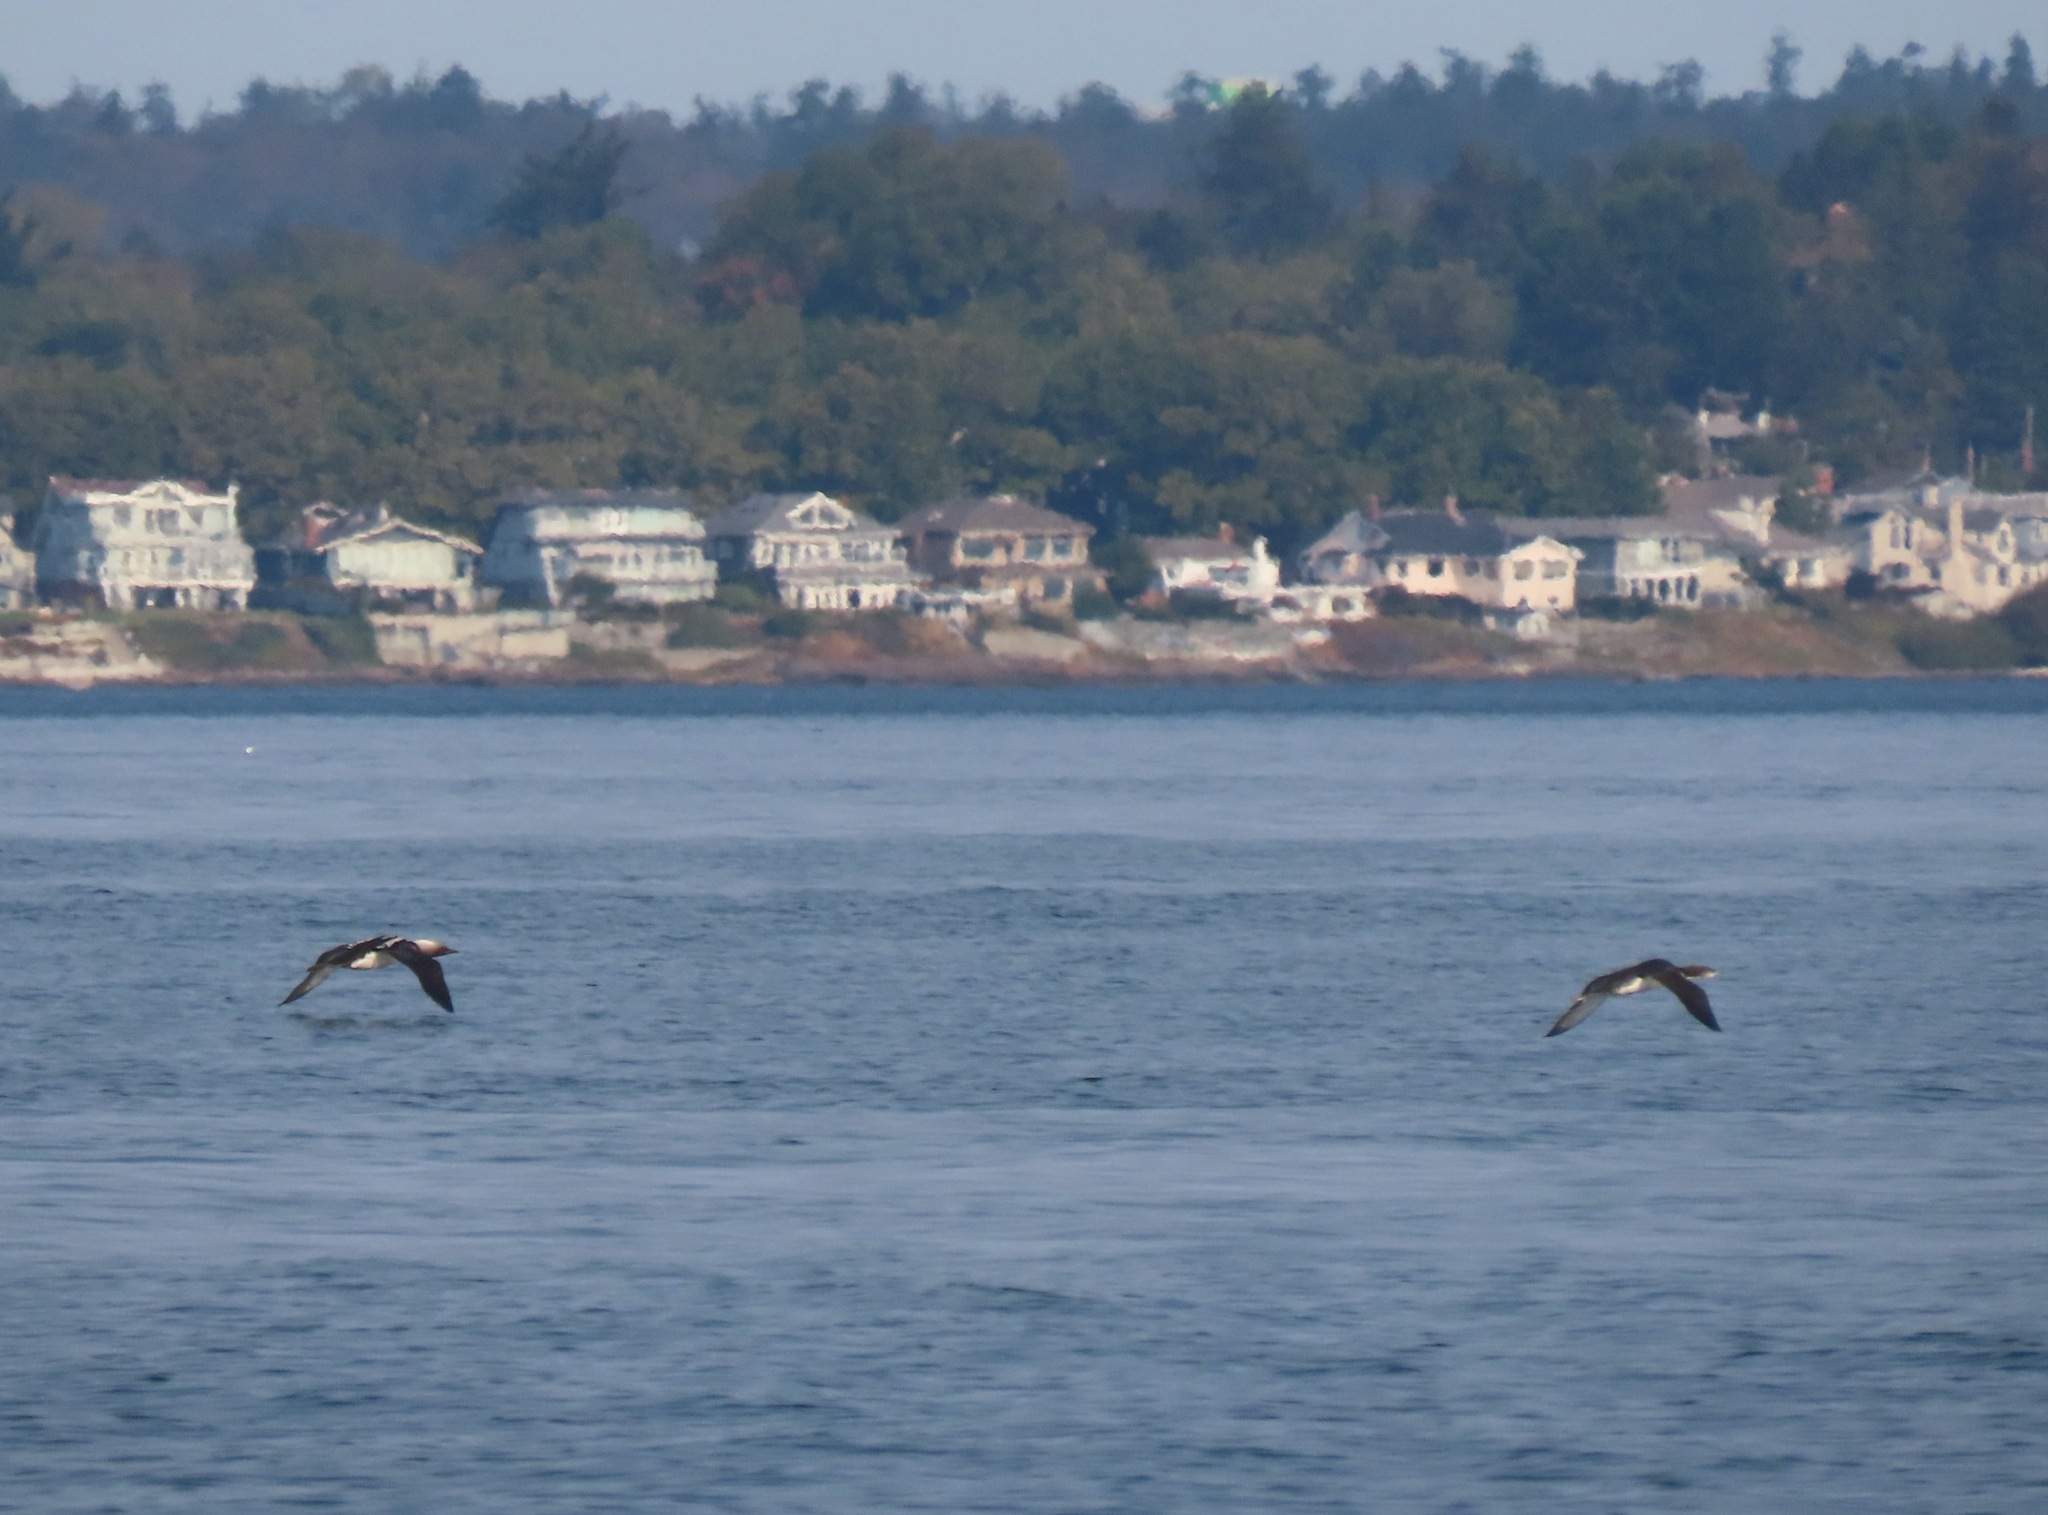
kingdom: Animalia
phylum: Chordata
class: Aves
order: Gaviiformes
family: Gaviidae
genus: Gavia
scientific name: Gavia pacifica
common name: Pacific loon
